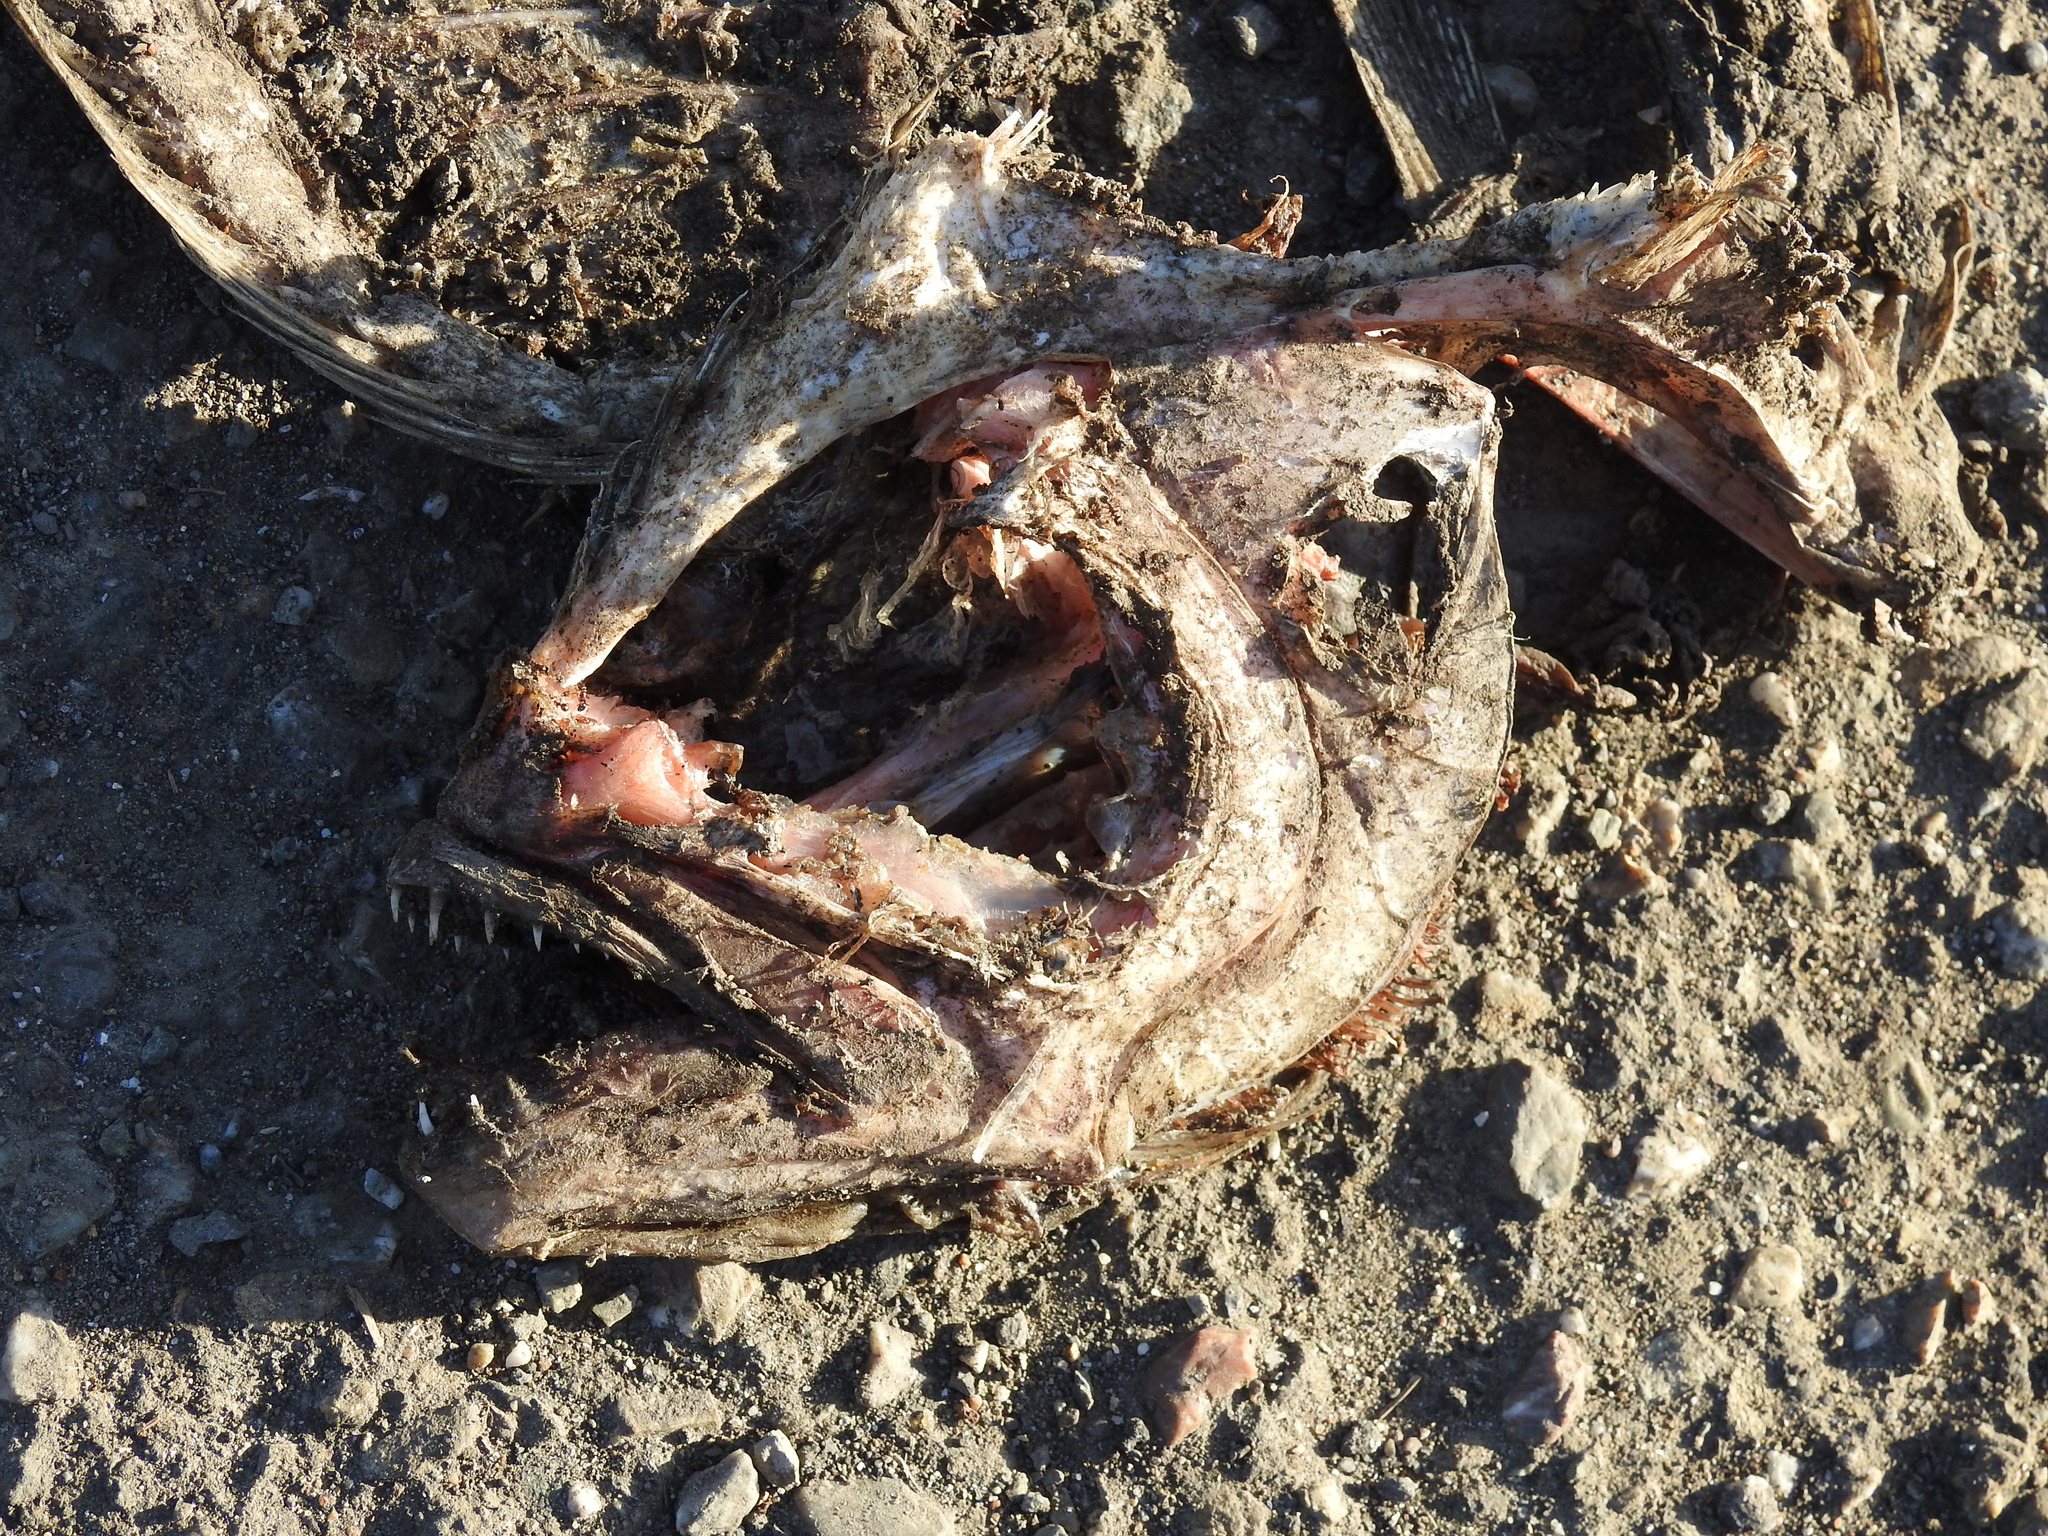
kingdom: Animalia
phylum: Chordata
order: Pleuronectiformes
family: Paralichthyidae
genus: Paralichthys
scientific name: Paralichthys californicus
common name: California halibut
